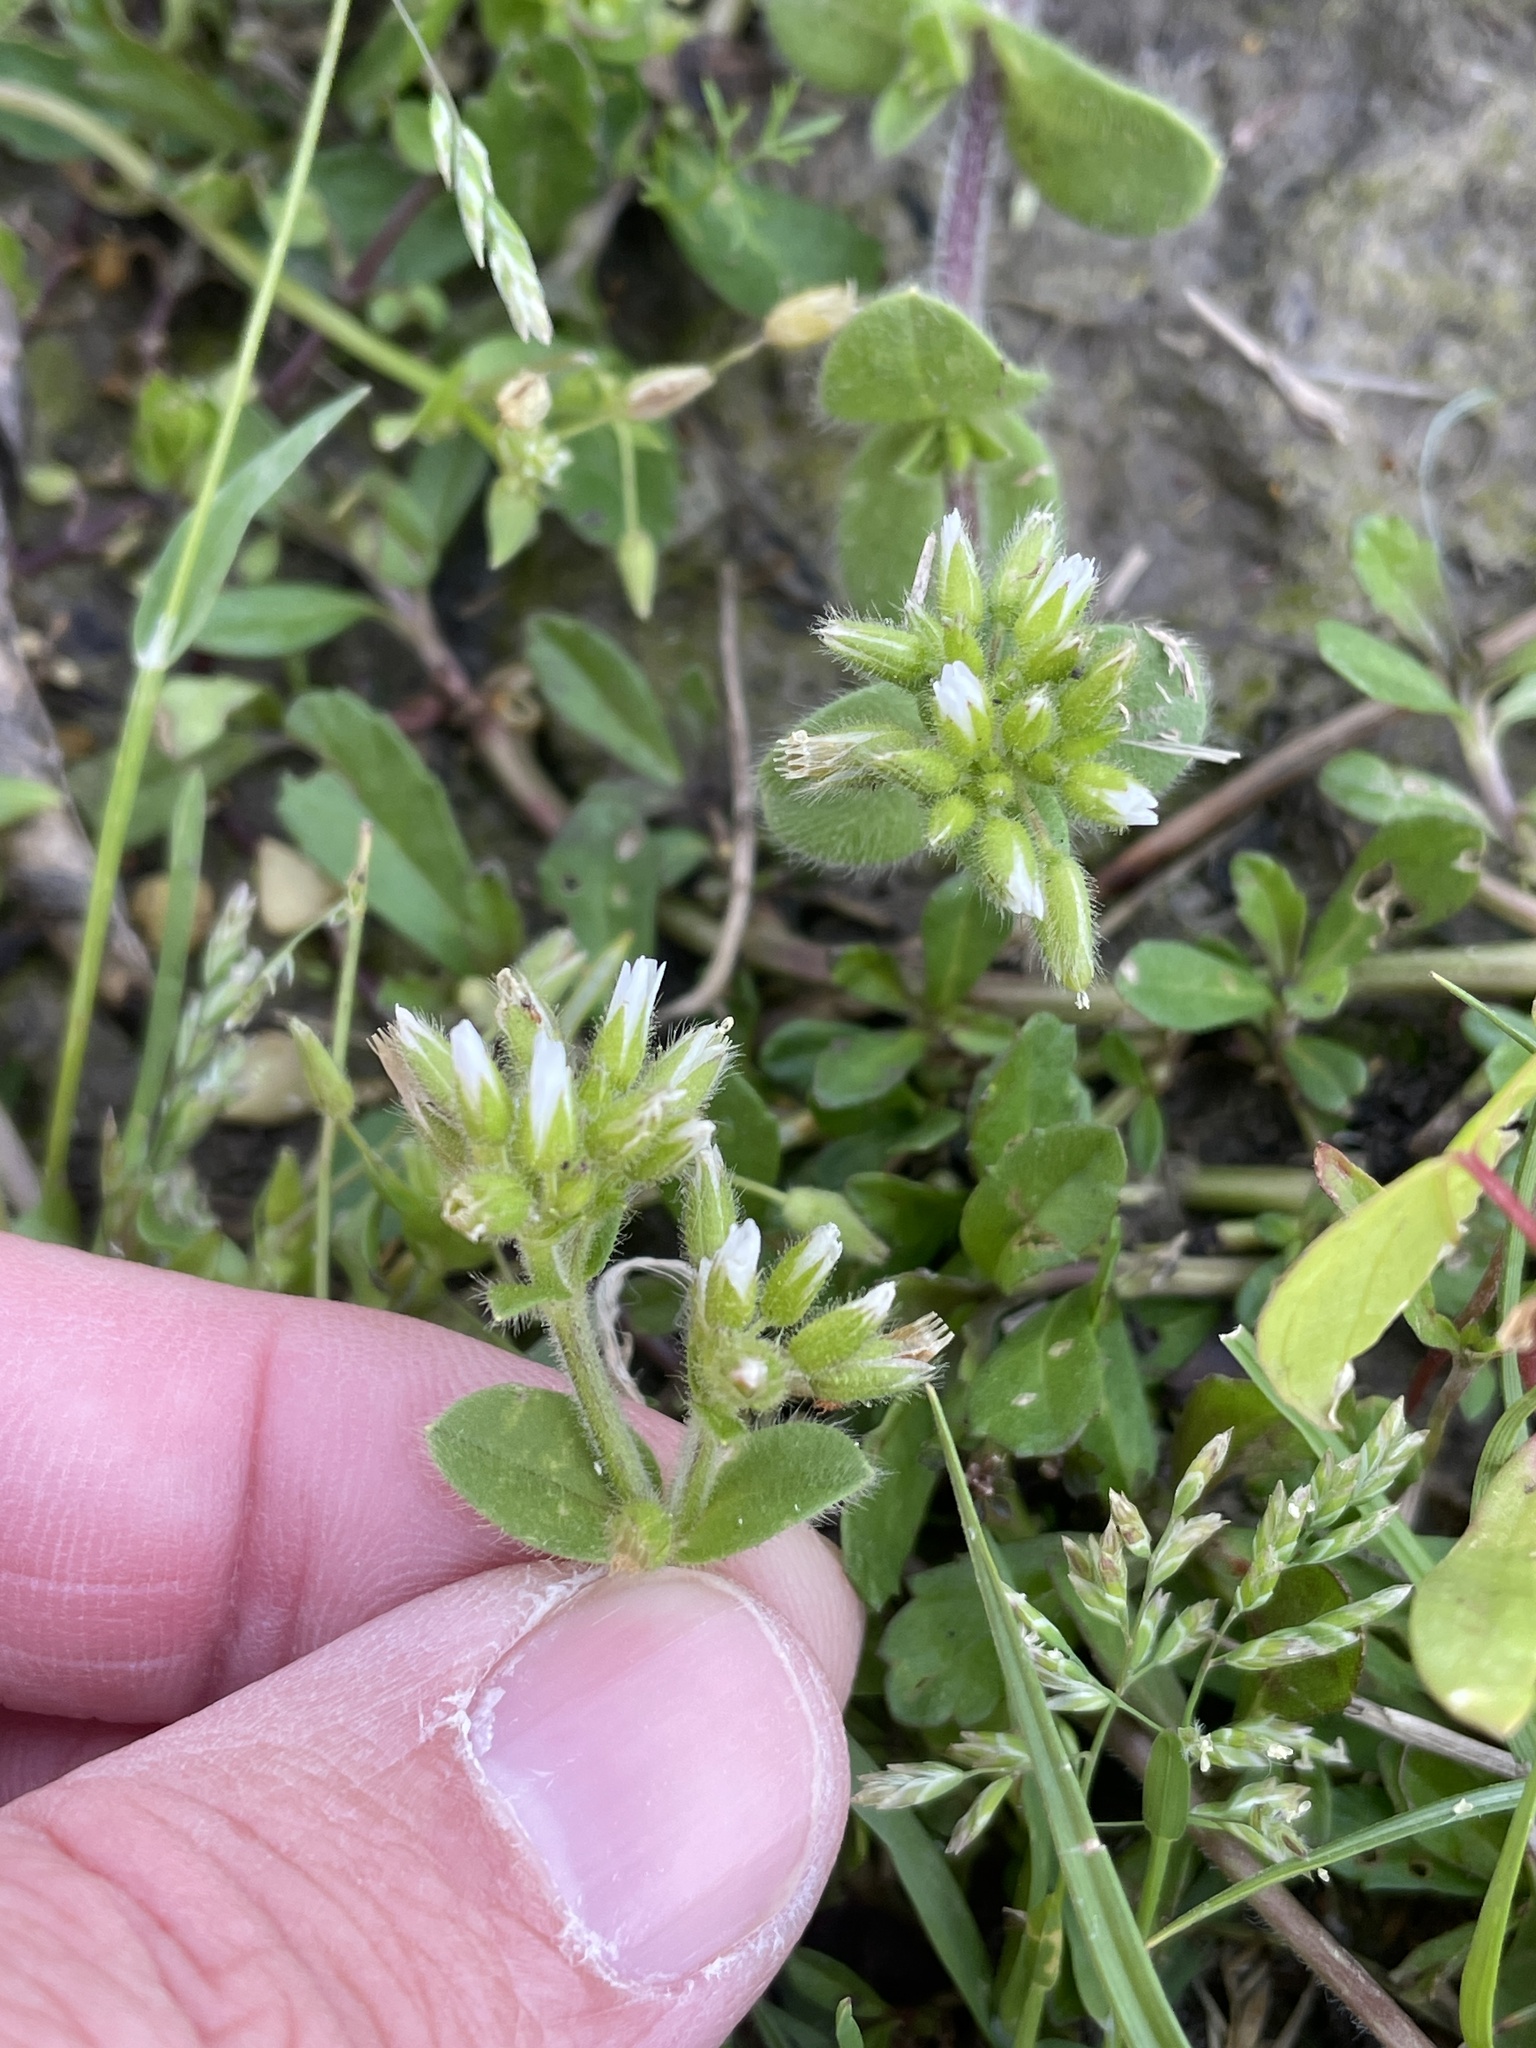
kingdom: Plantae
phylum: Tracheophyta
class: Magnoliopsida
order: Caryophyllales
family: Caryophyllaceae
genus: Cerastium
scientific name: Cerastium glomeratum
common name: Sticky chickweed
